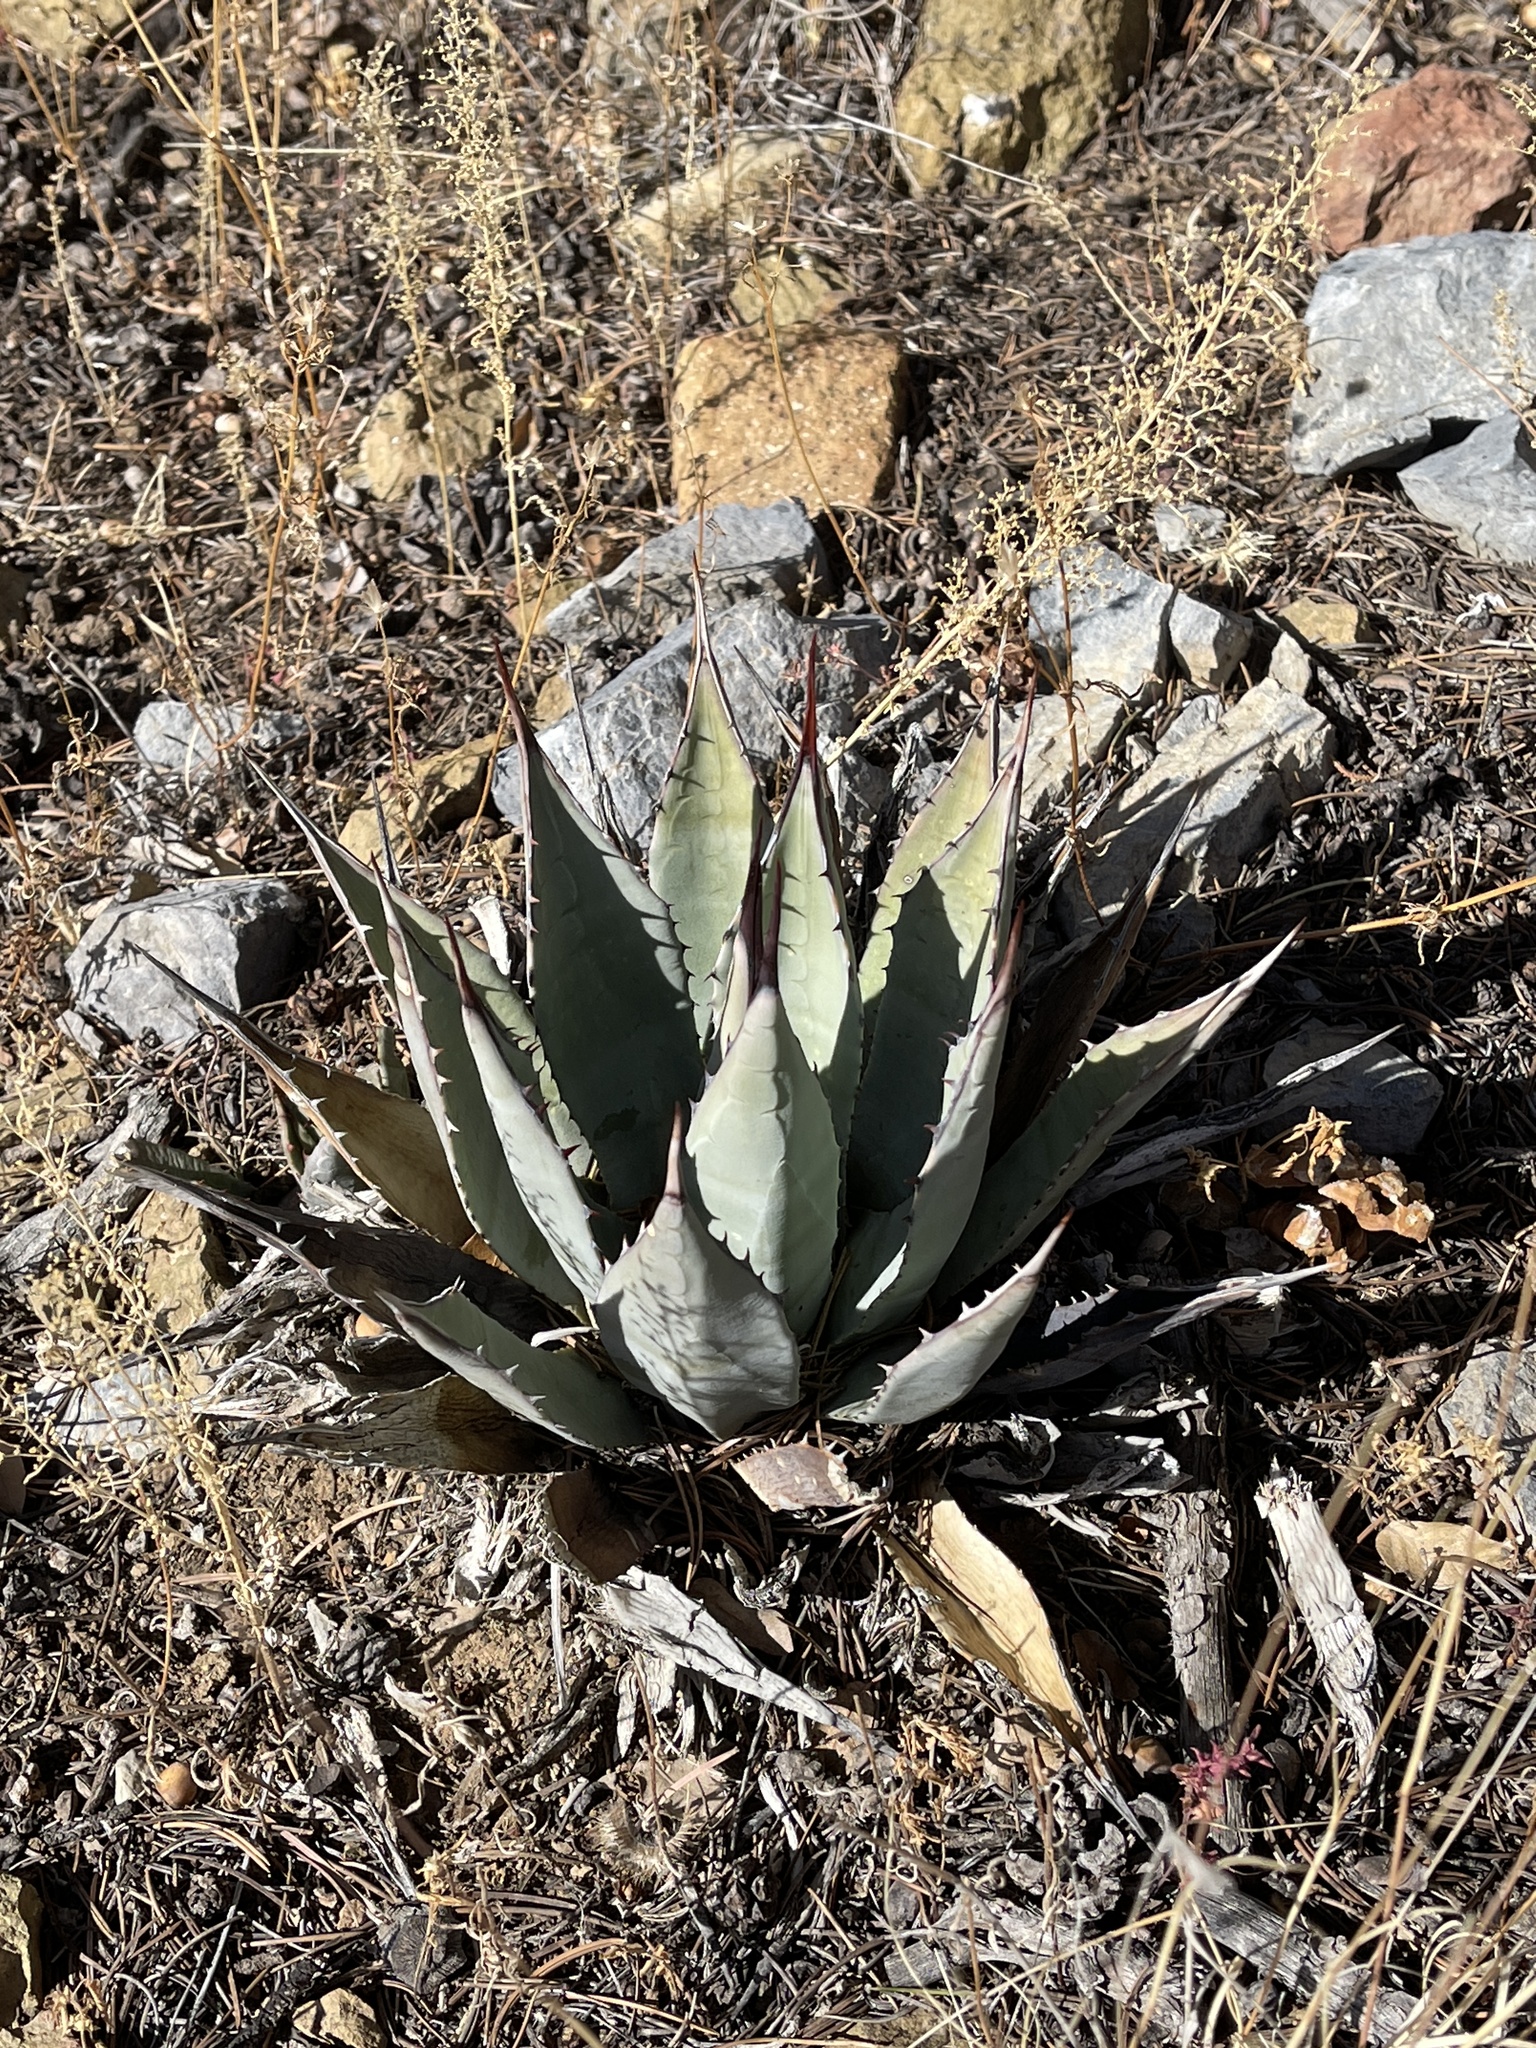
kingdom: Plantae
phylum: Tracheophyta
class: Liliopsida
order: Asparagales
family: Asparagaceae
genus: Agave
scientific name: Agave parryi
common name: Parry's agave
